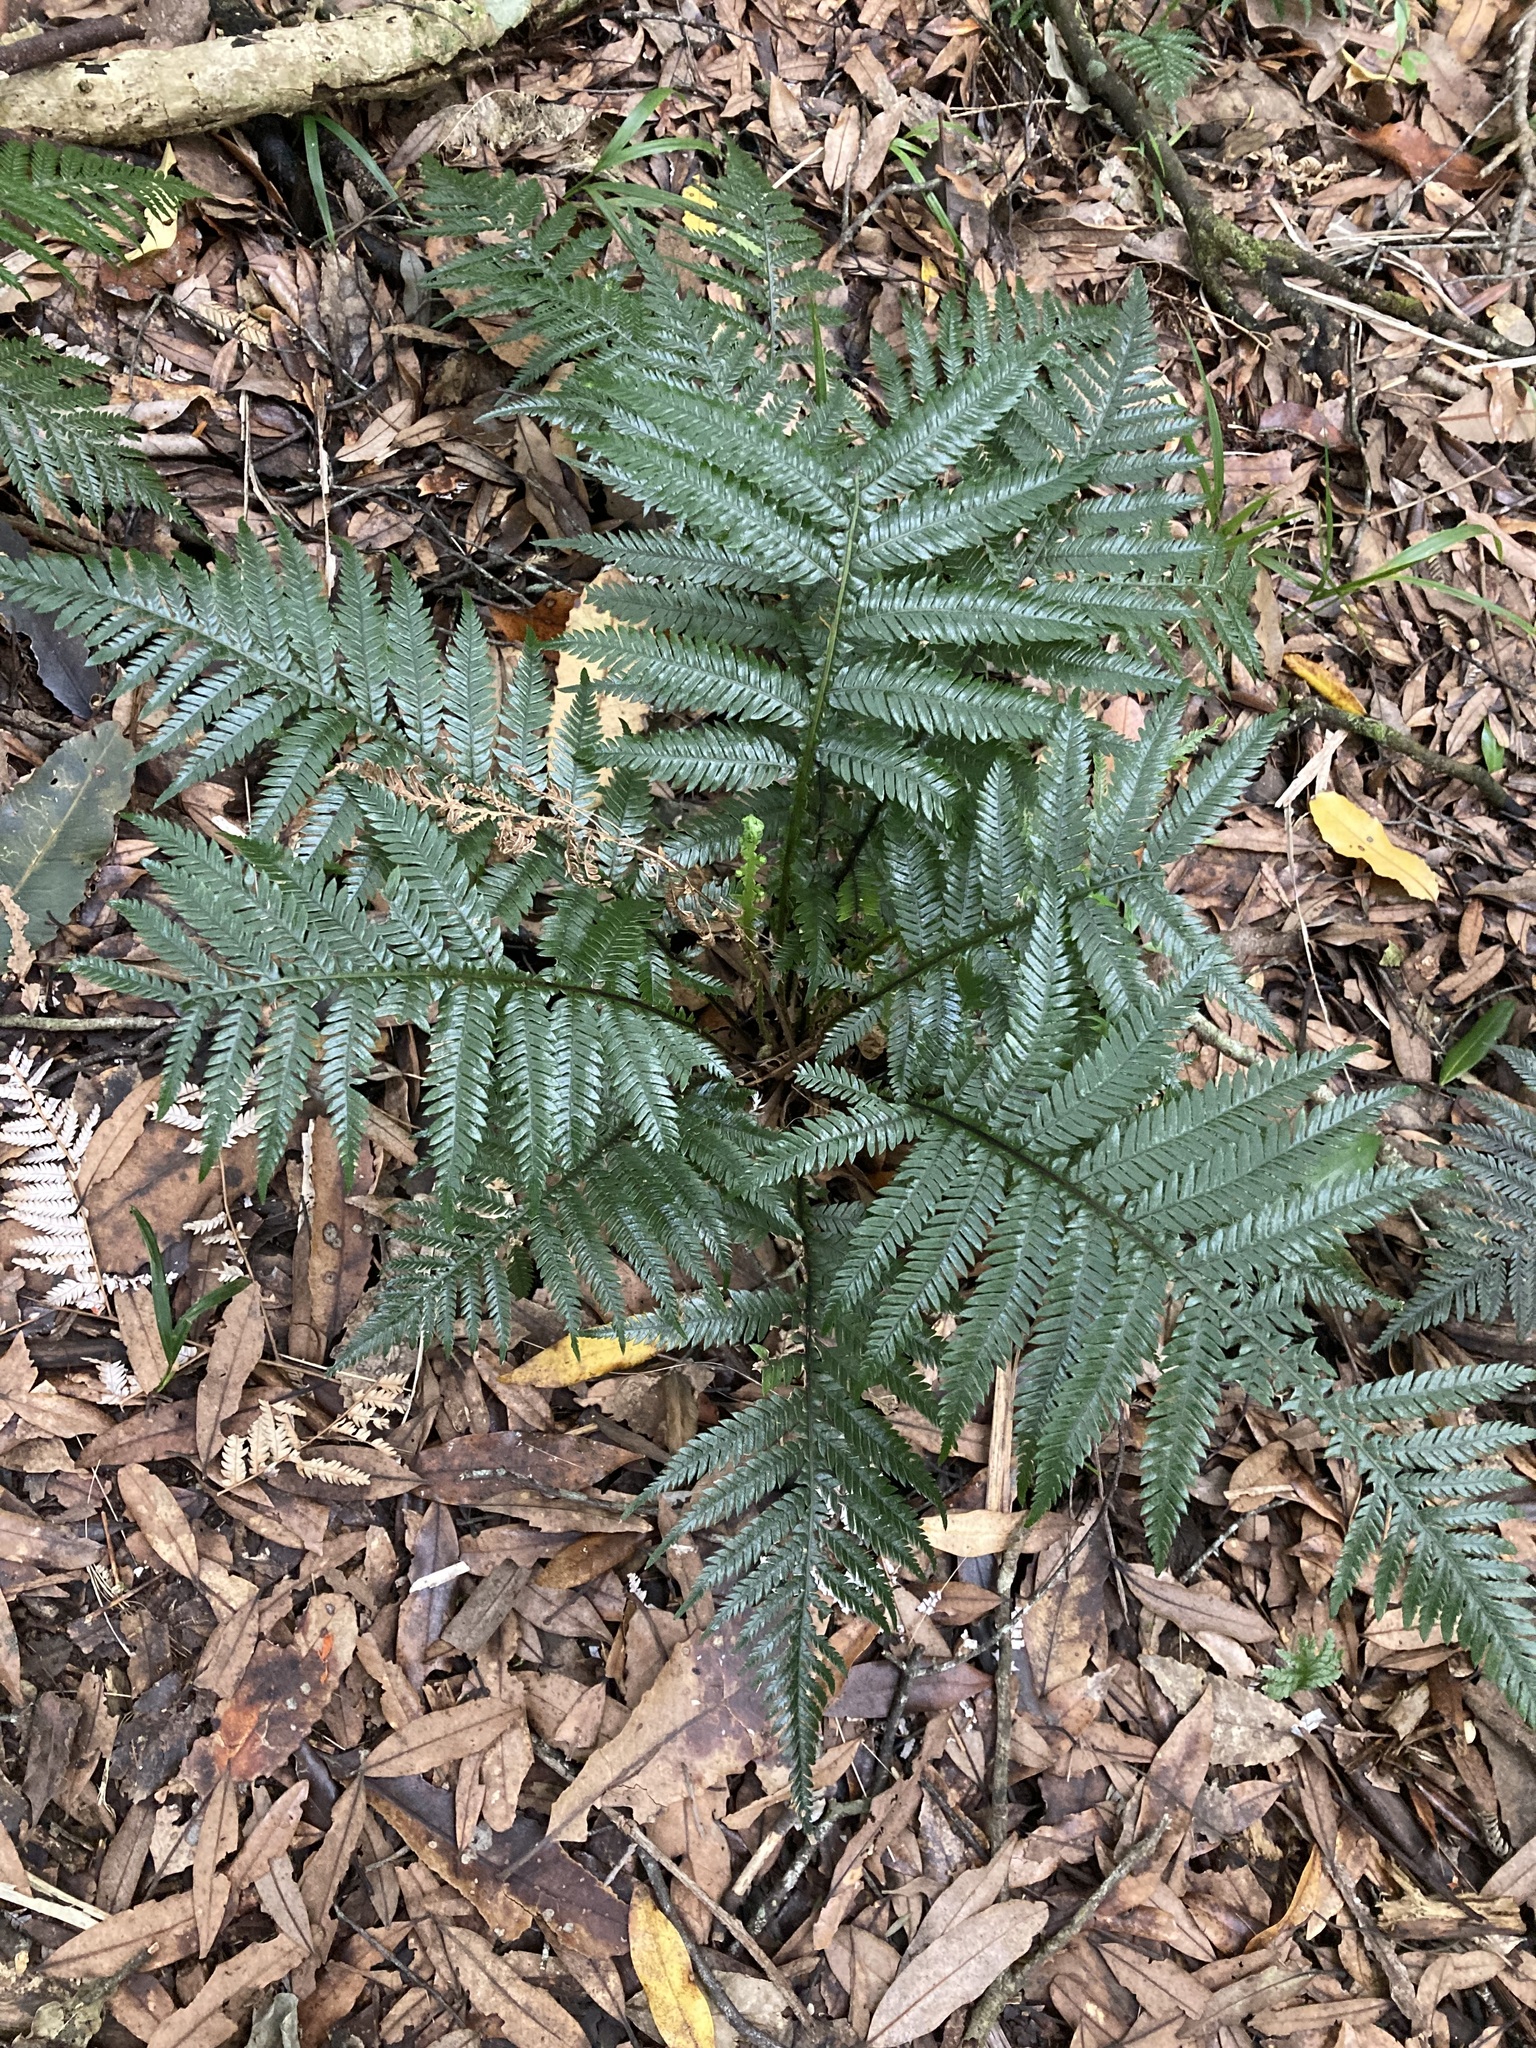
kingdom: Plantae
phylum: Tracheophyta
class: Polypodiopsida
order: Polypodiales
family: Blechnaceae
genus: Diploblechnum
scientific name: Diploblechnum fraseri
